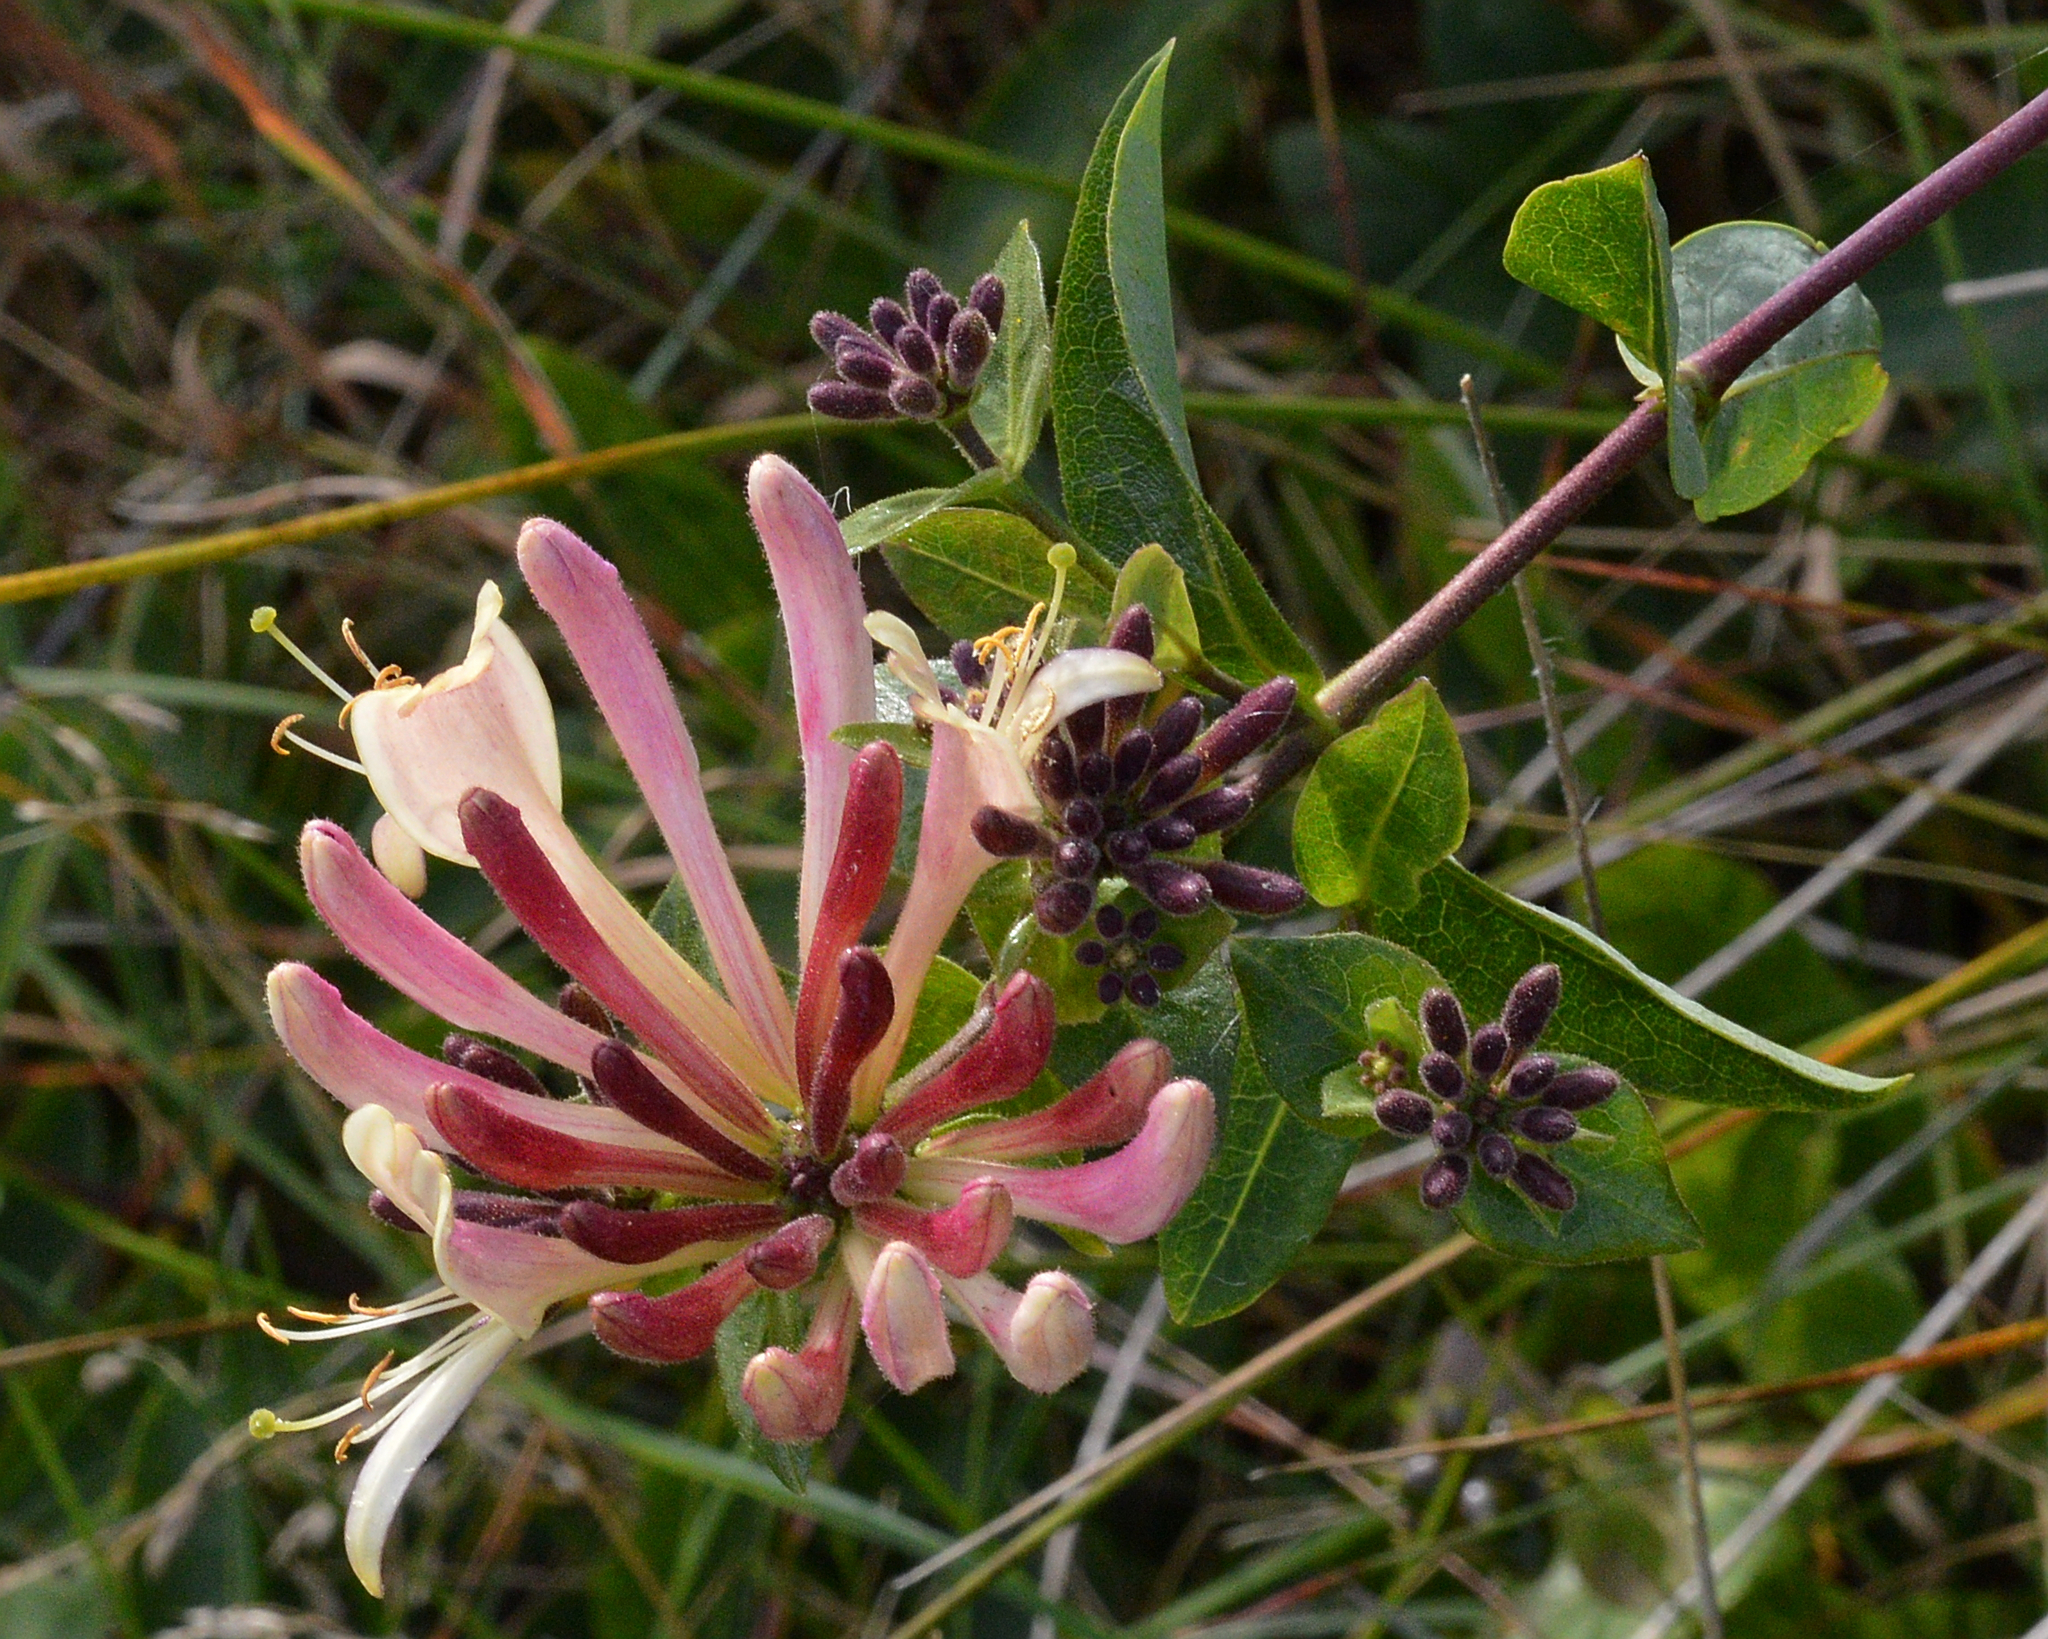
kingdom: Plantae
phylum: Tracheophyta
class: Magnoliopsida
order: Dipsacales
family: Caprifoliaceae
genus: Lonicera
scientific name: Lonicera periclymenum
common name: European honeysuckle
